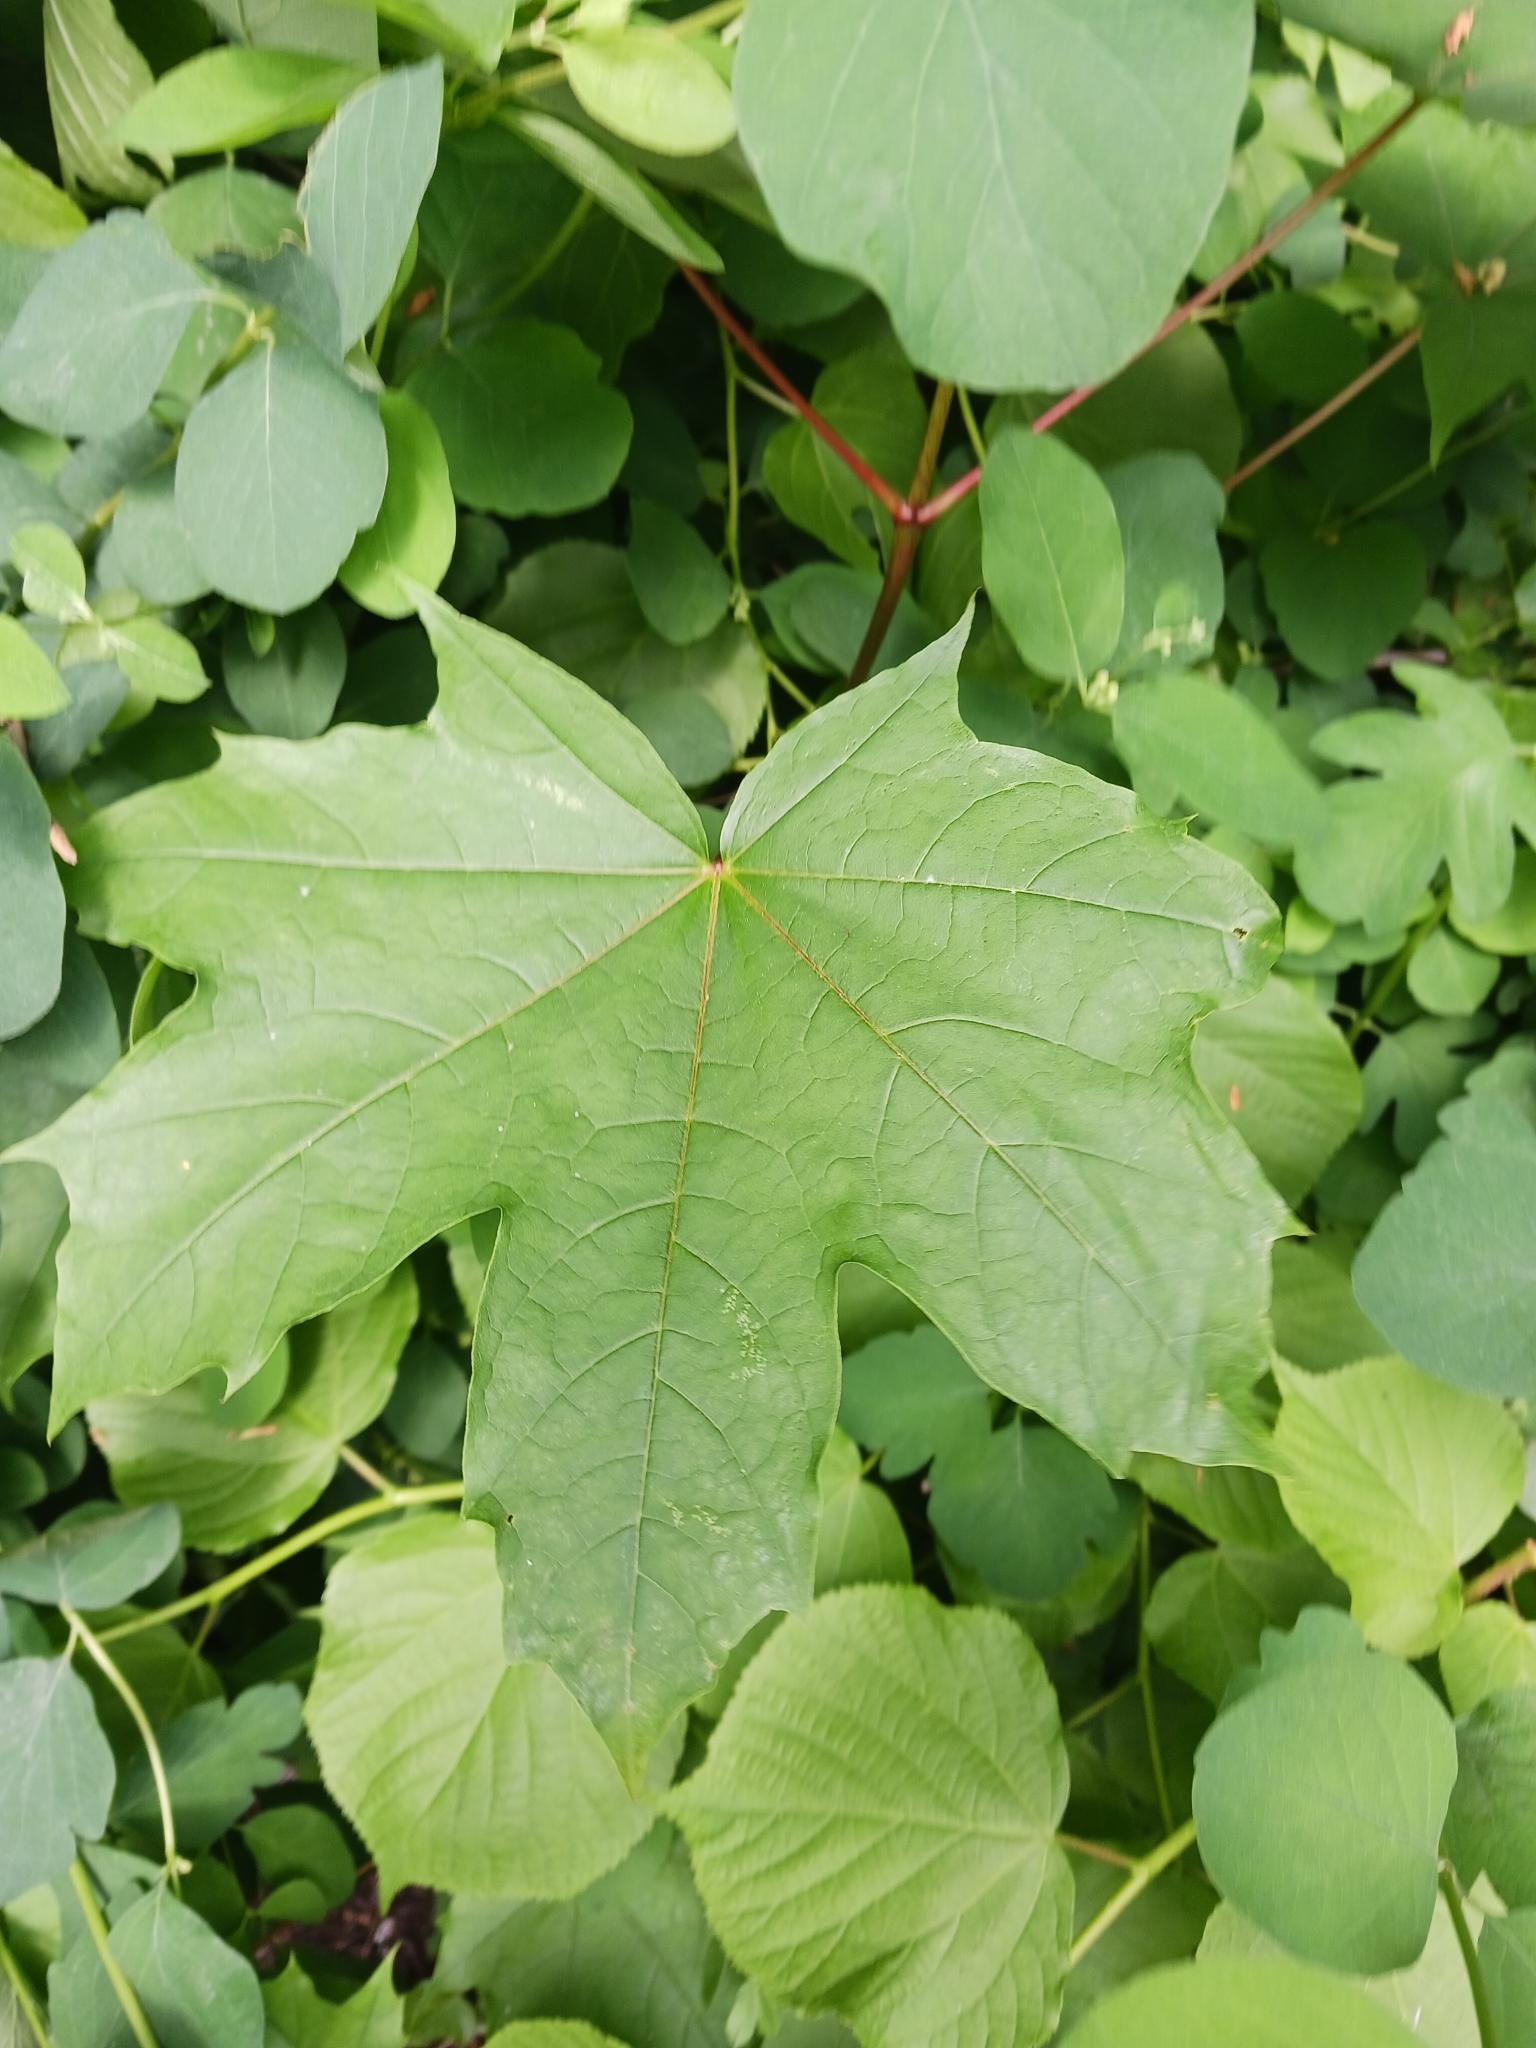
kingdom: Plantae
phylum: Tracheophyta
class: Magnoliopsida
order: Sapindales
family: Sapindaceae
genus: Acer
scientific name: Acer platanoides
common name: Norway maple
